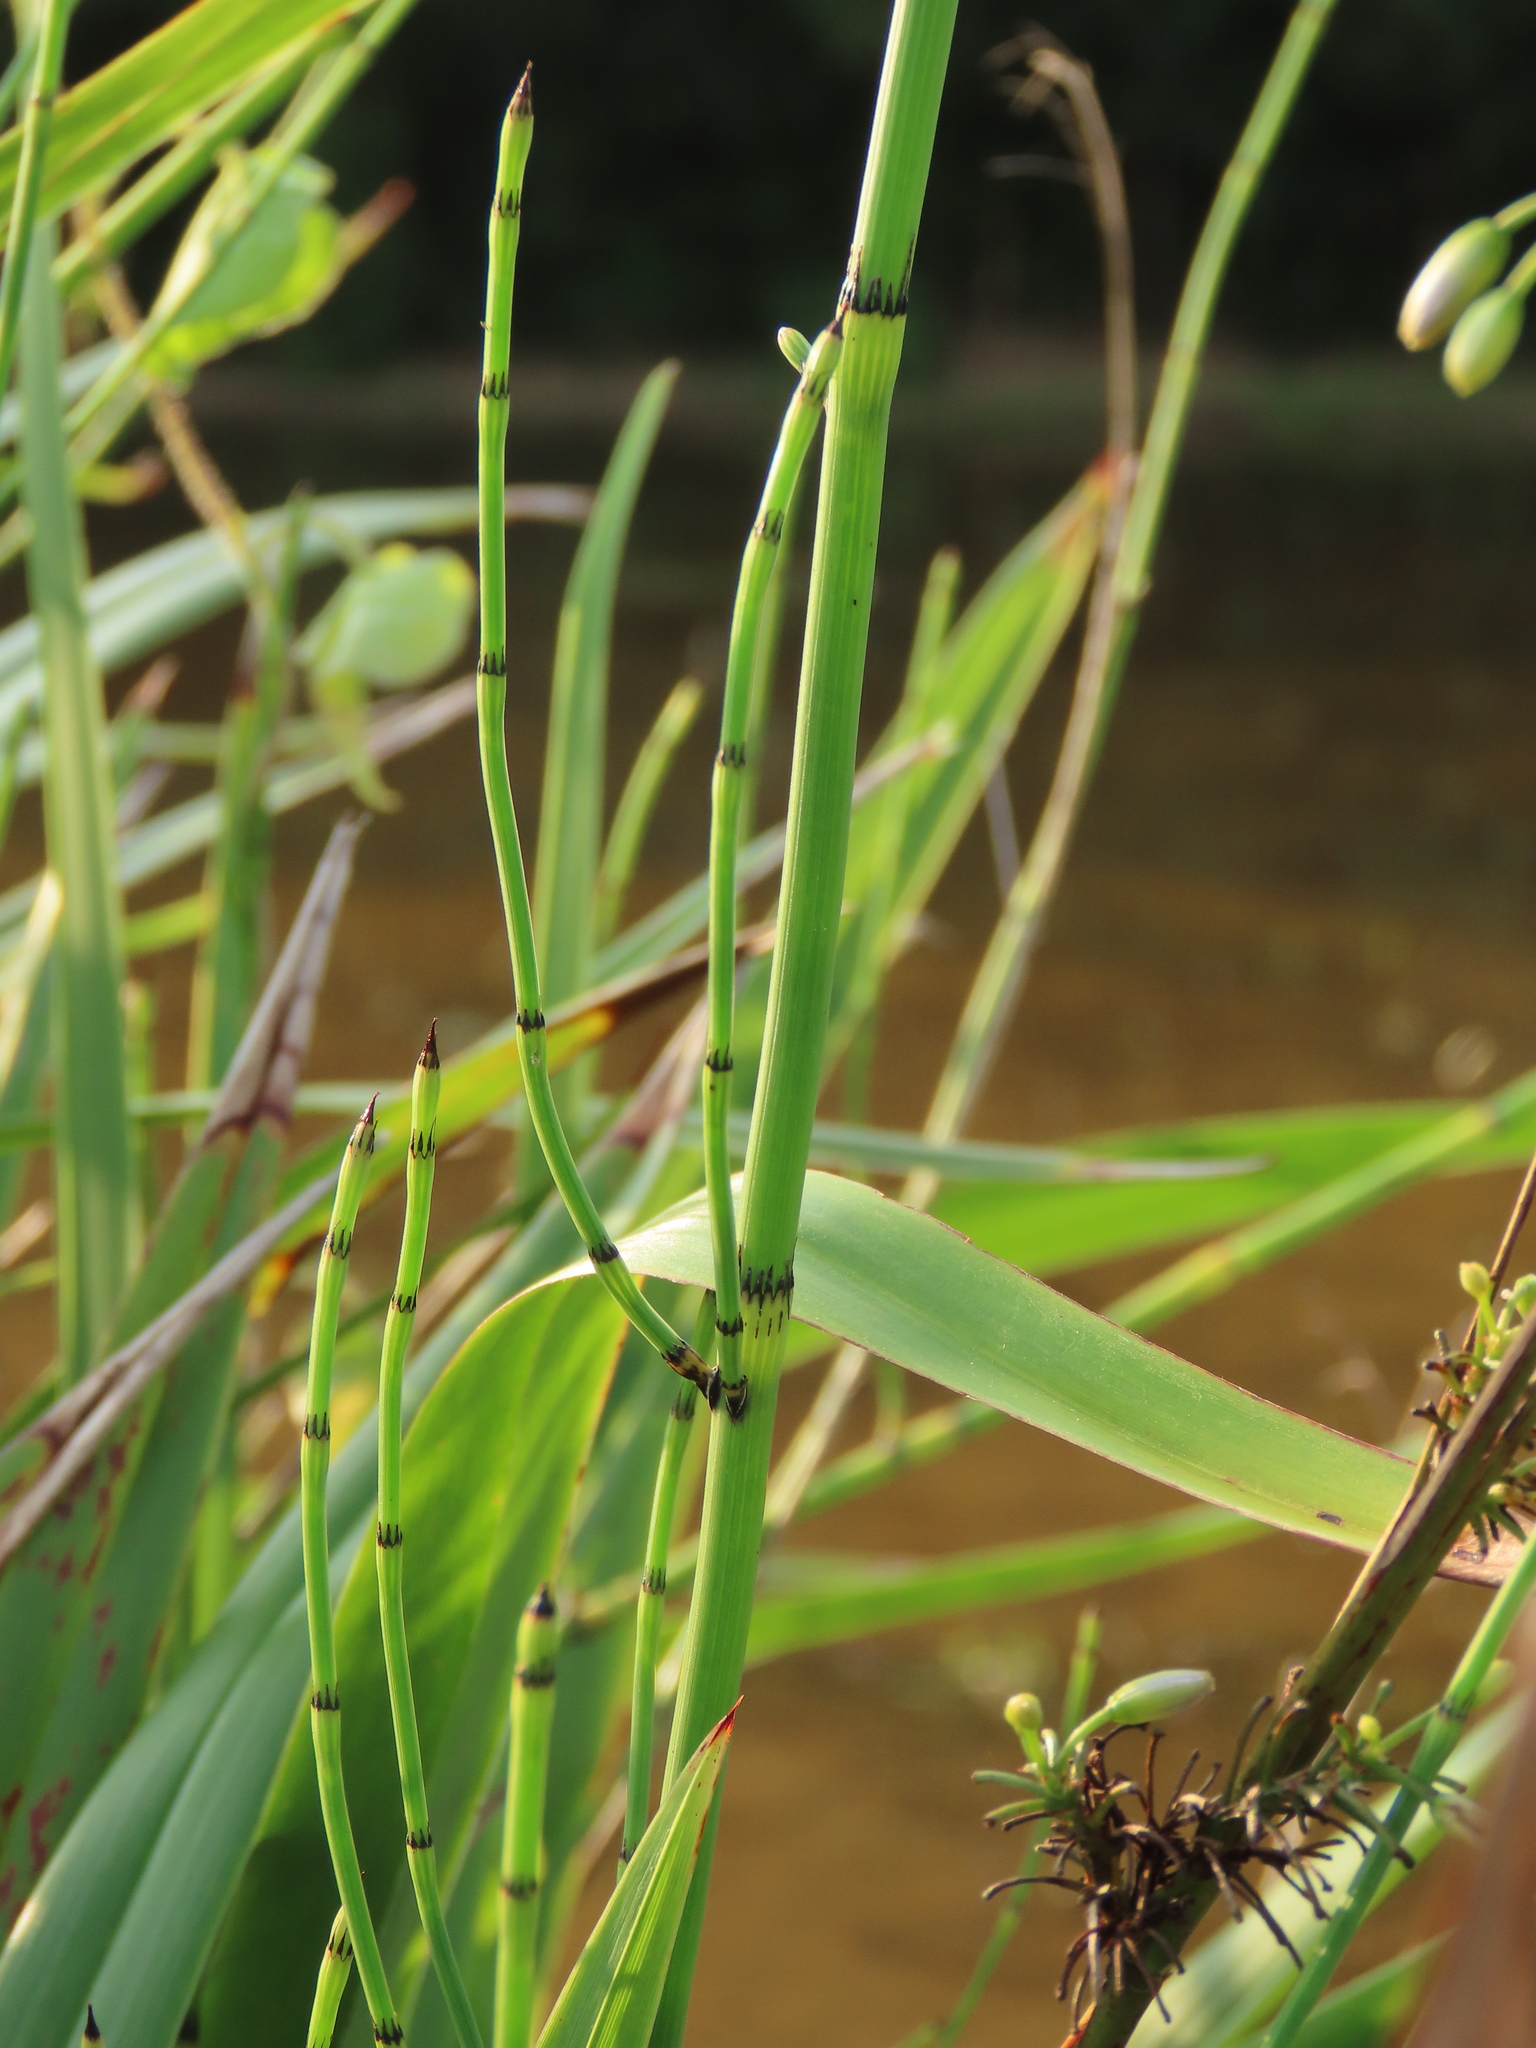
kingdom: Plantae
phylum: Tracheophyta
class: Polypodiopsida
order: Equisetales
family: Equisetaceae
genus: Equisetum
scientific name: Equisetum ramosissimum
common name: Branched horsetail
